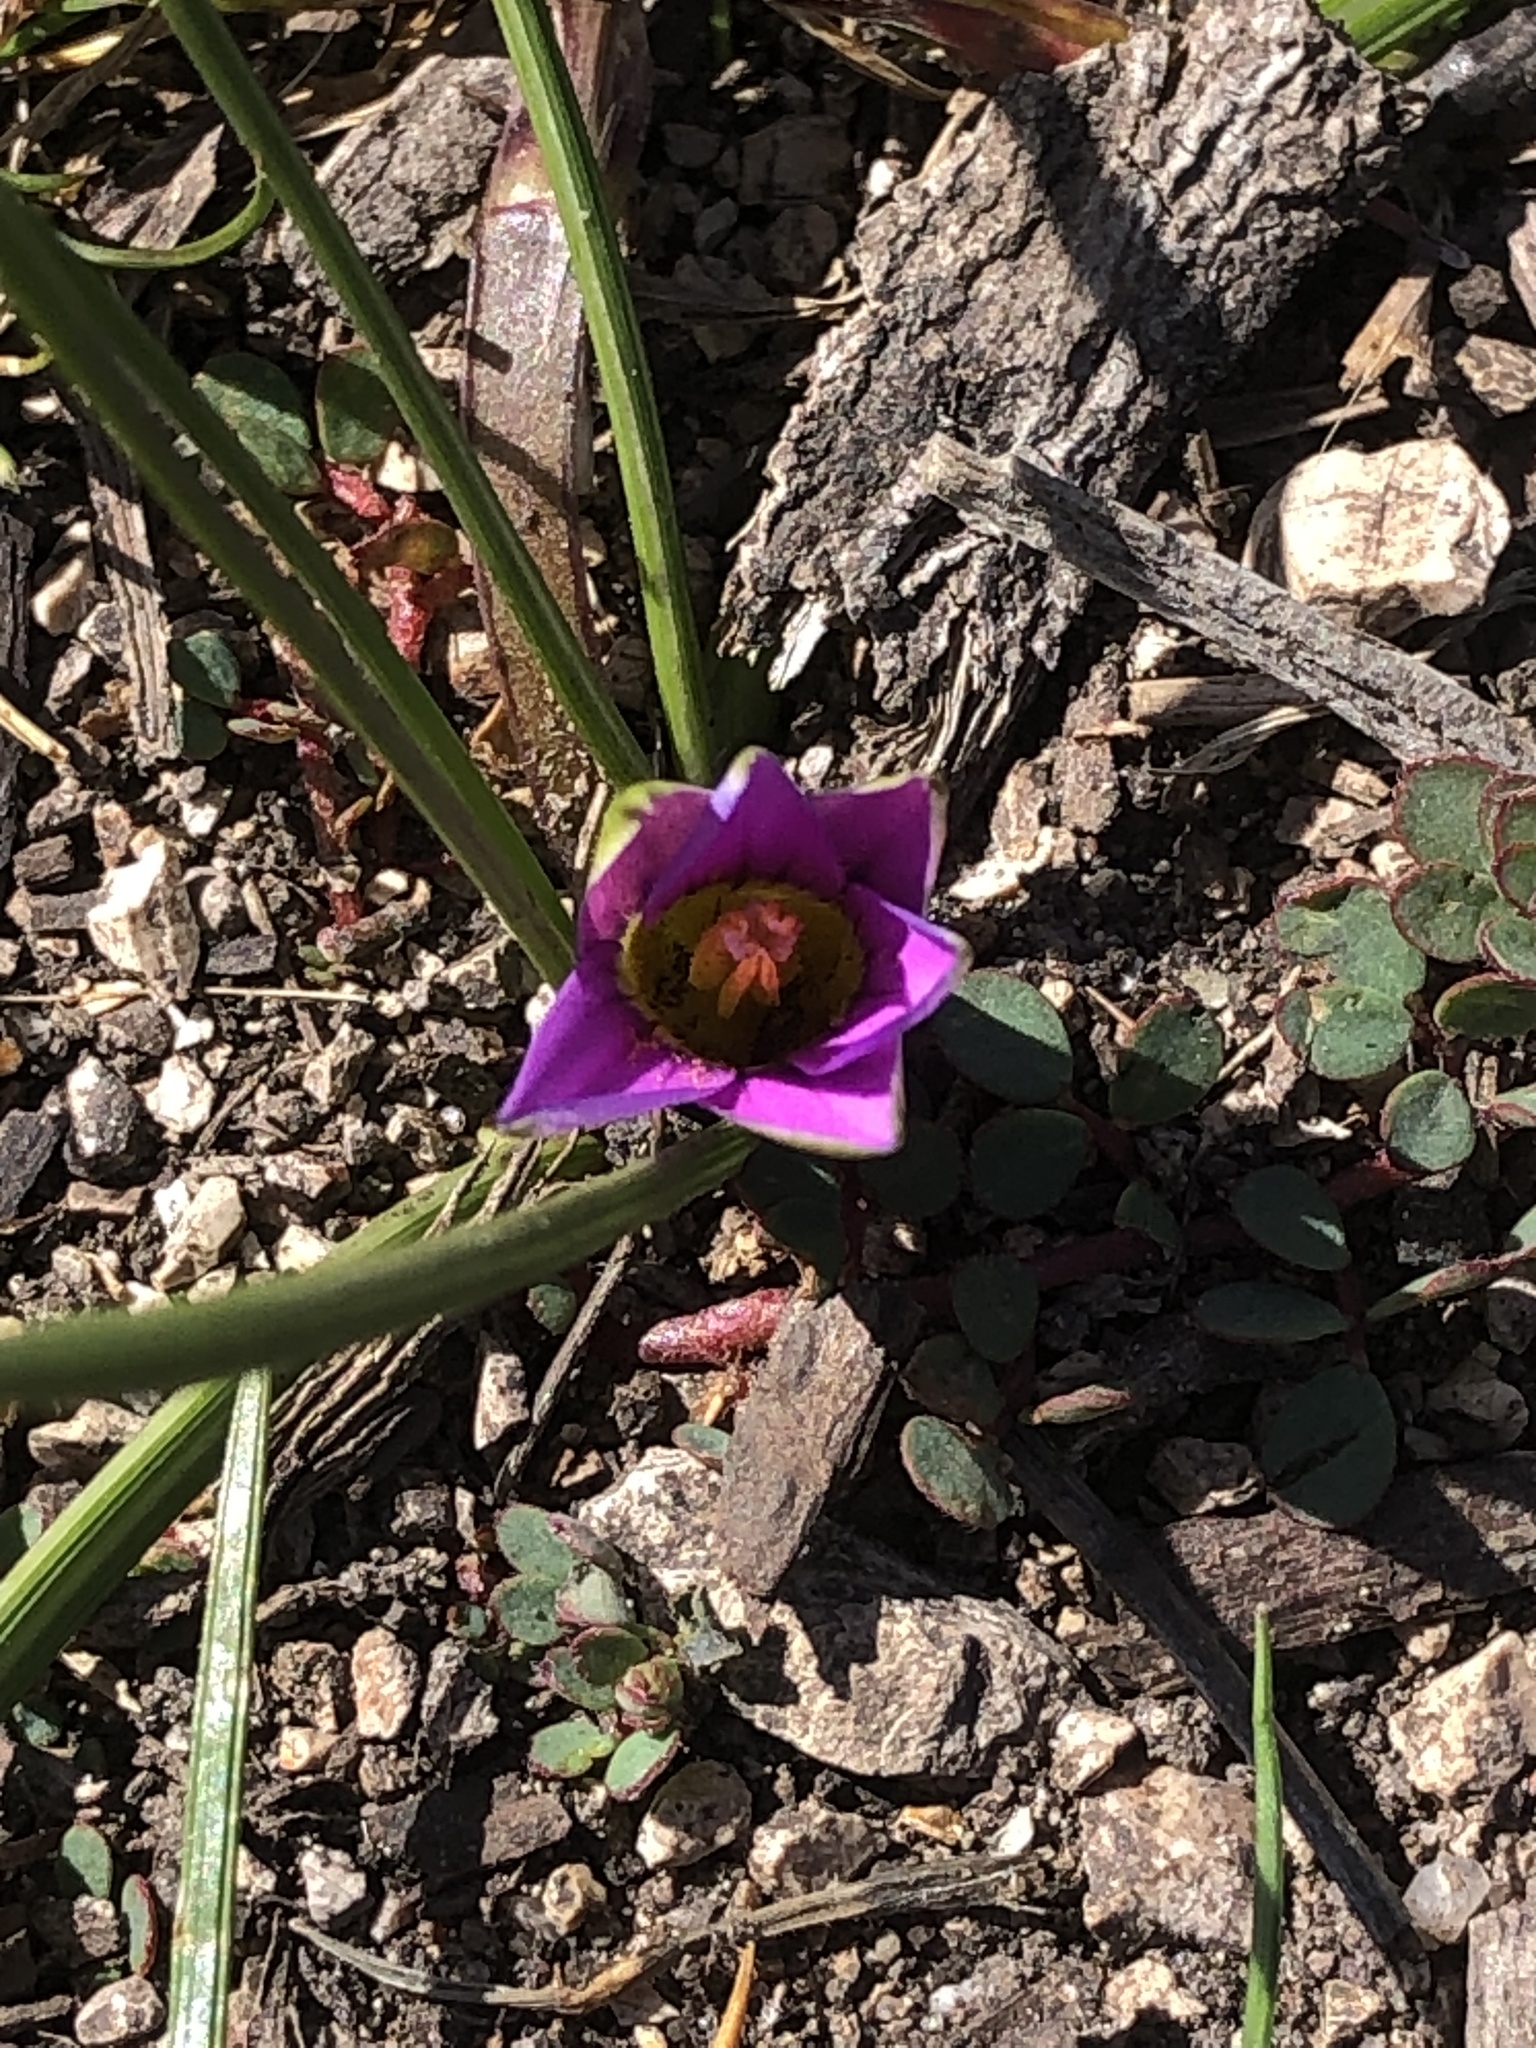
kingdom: Plantae
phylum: Tracheophyta
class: Liliopsida
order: Asparagales
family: Iridaceae
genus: Romulea
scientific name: Romulea rosea
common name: Oniongrass
